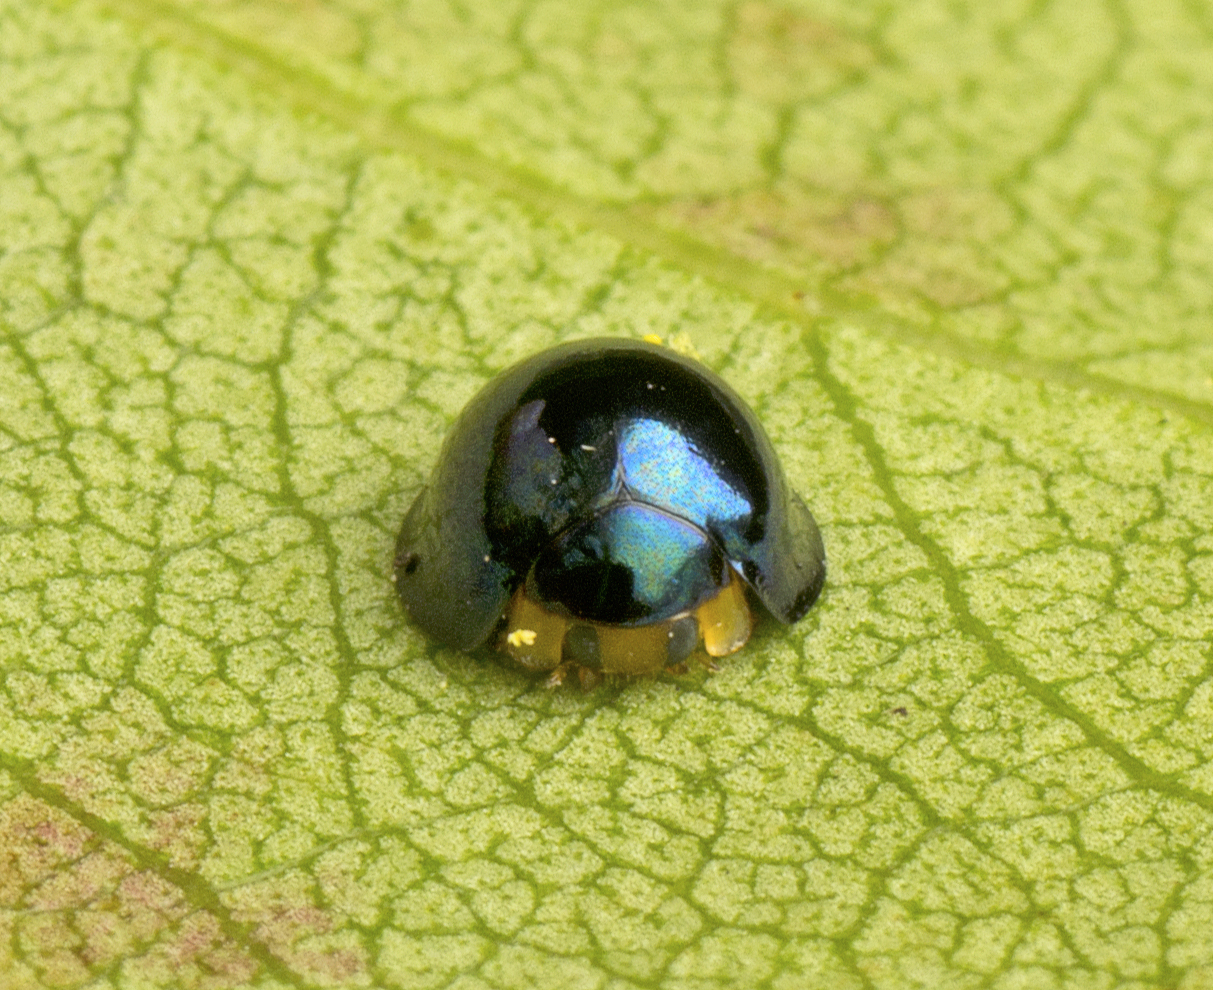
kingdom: Animalia
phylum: Arthropoda
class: Insecta
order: Coleoptera
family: Coccinellidae
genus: Halmus
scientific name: Halmus chalybeus
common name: Steel blue ladybird beetle
